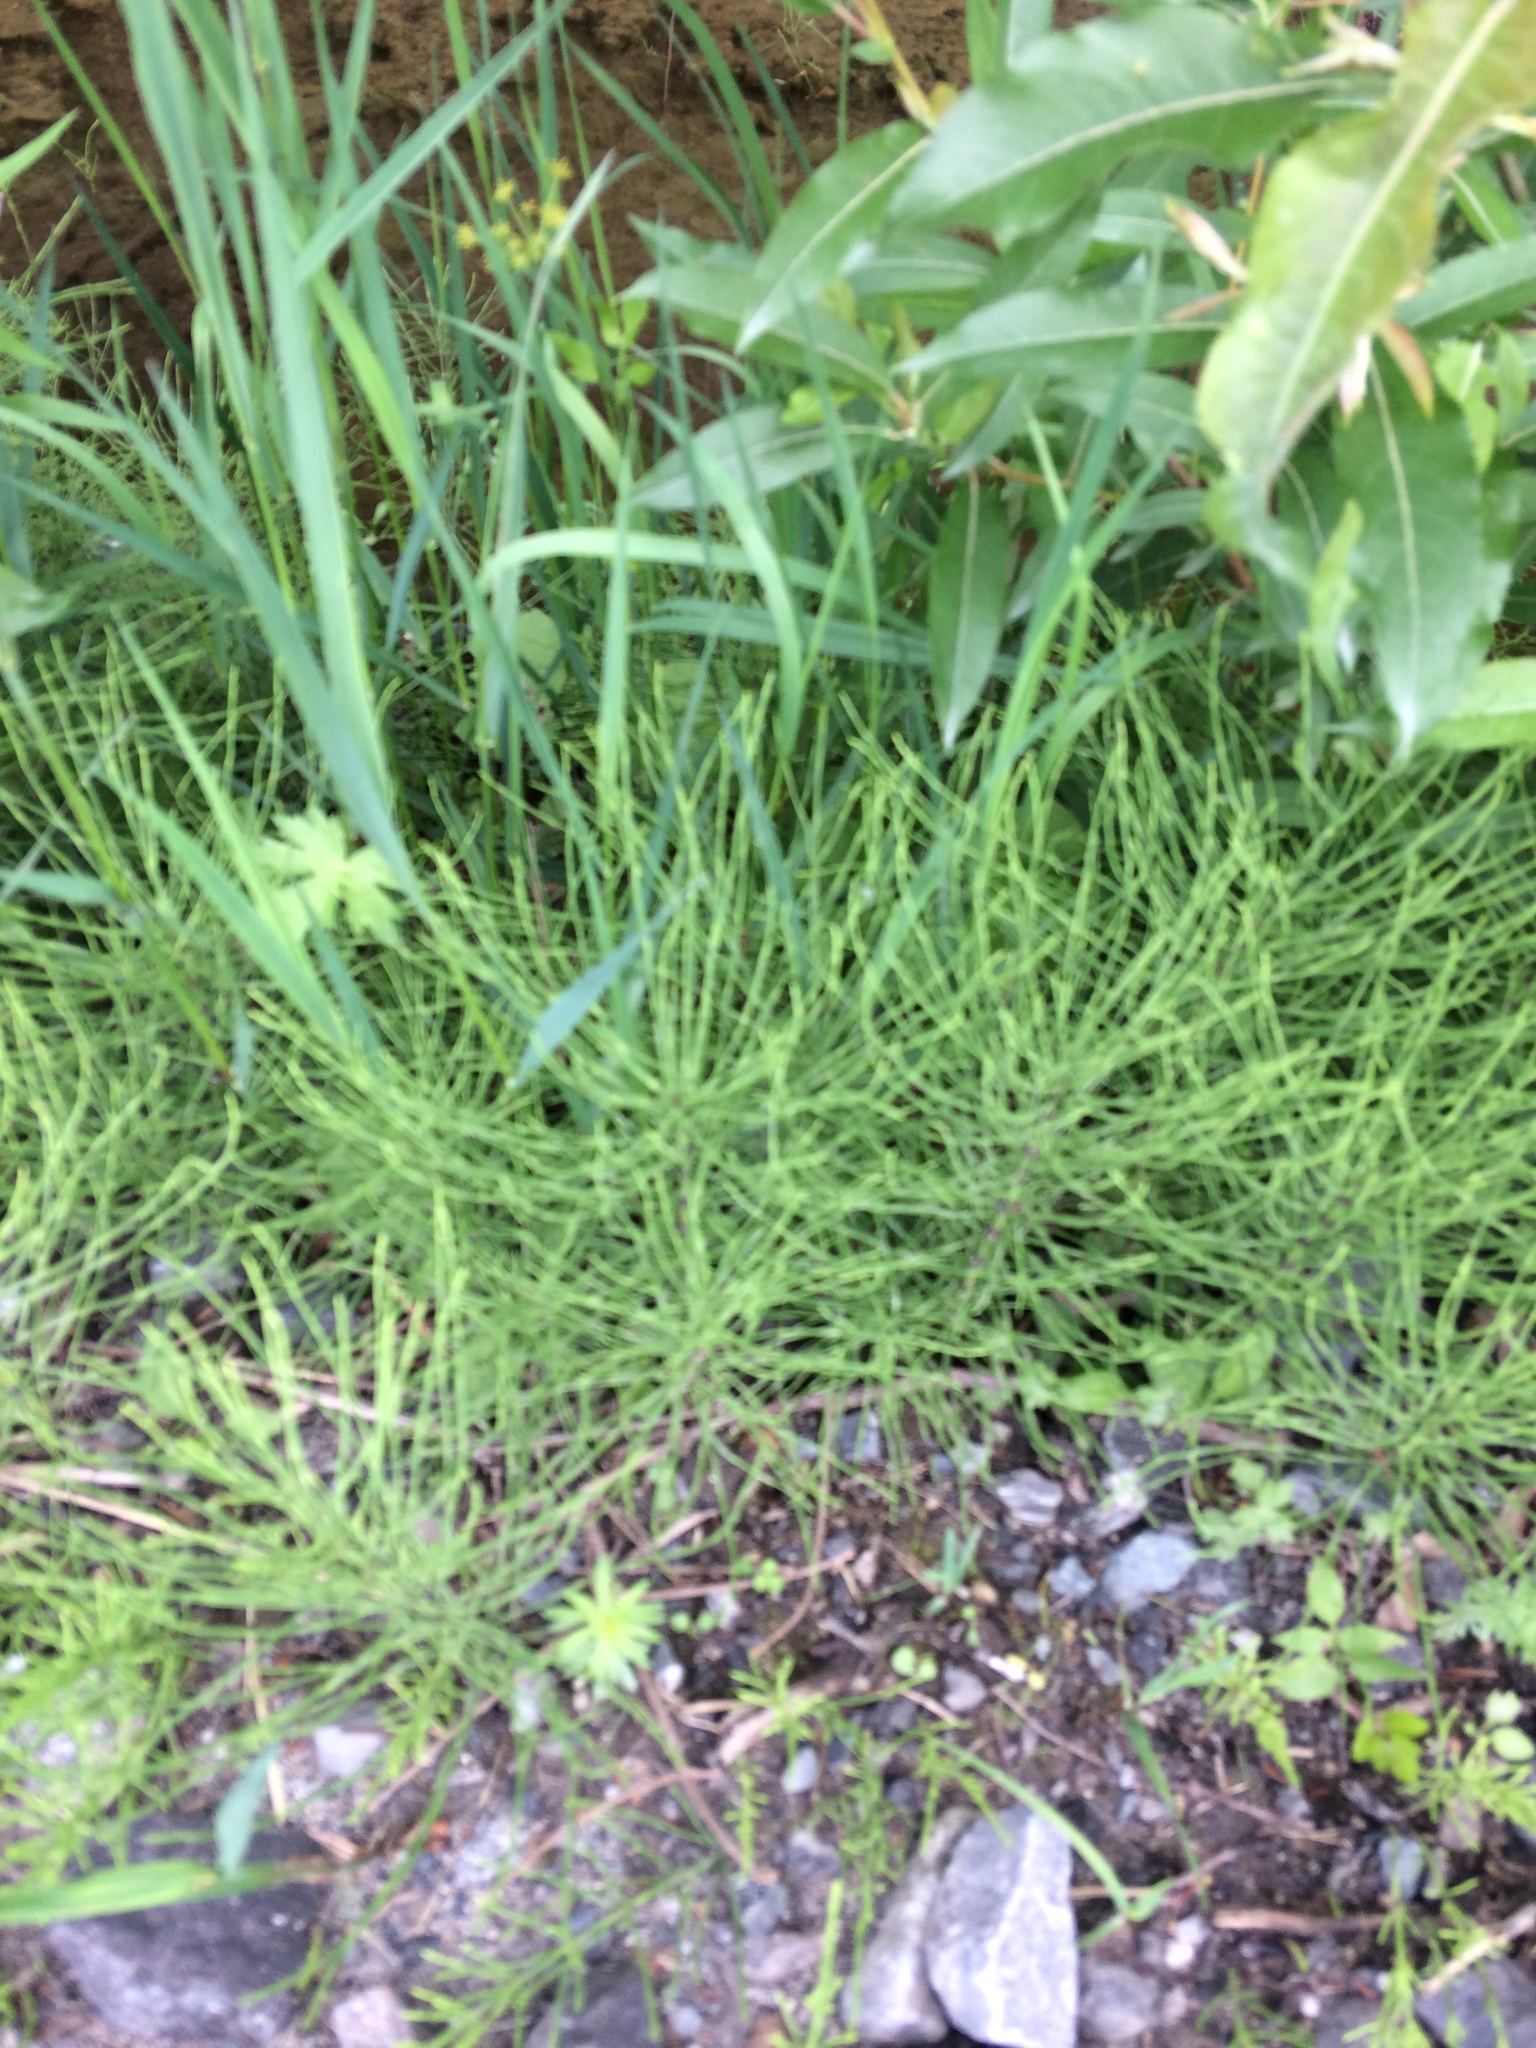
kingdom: Plantae
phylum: Tracheophyta
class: Polypodiopsida
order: Equisetales
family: Equisetaceae
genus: Equisetum
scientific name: Equisetum arvense
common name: Field horsetail
